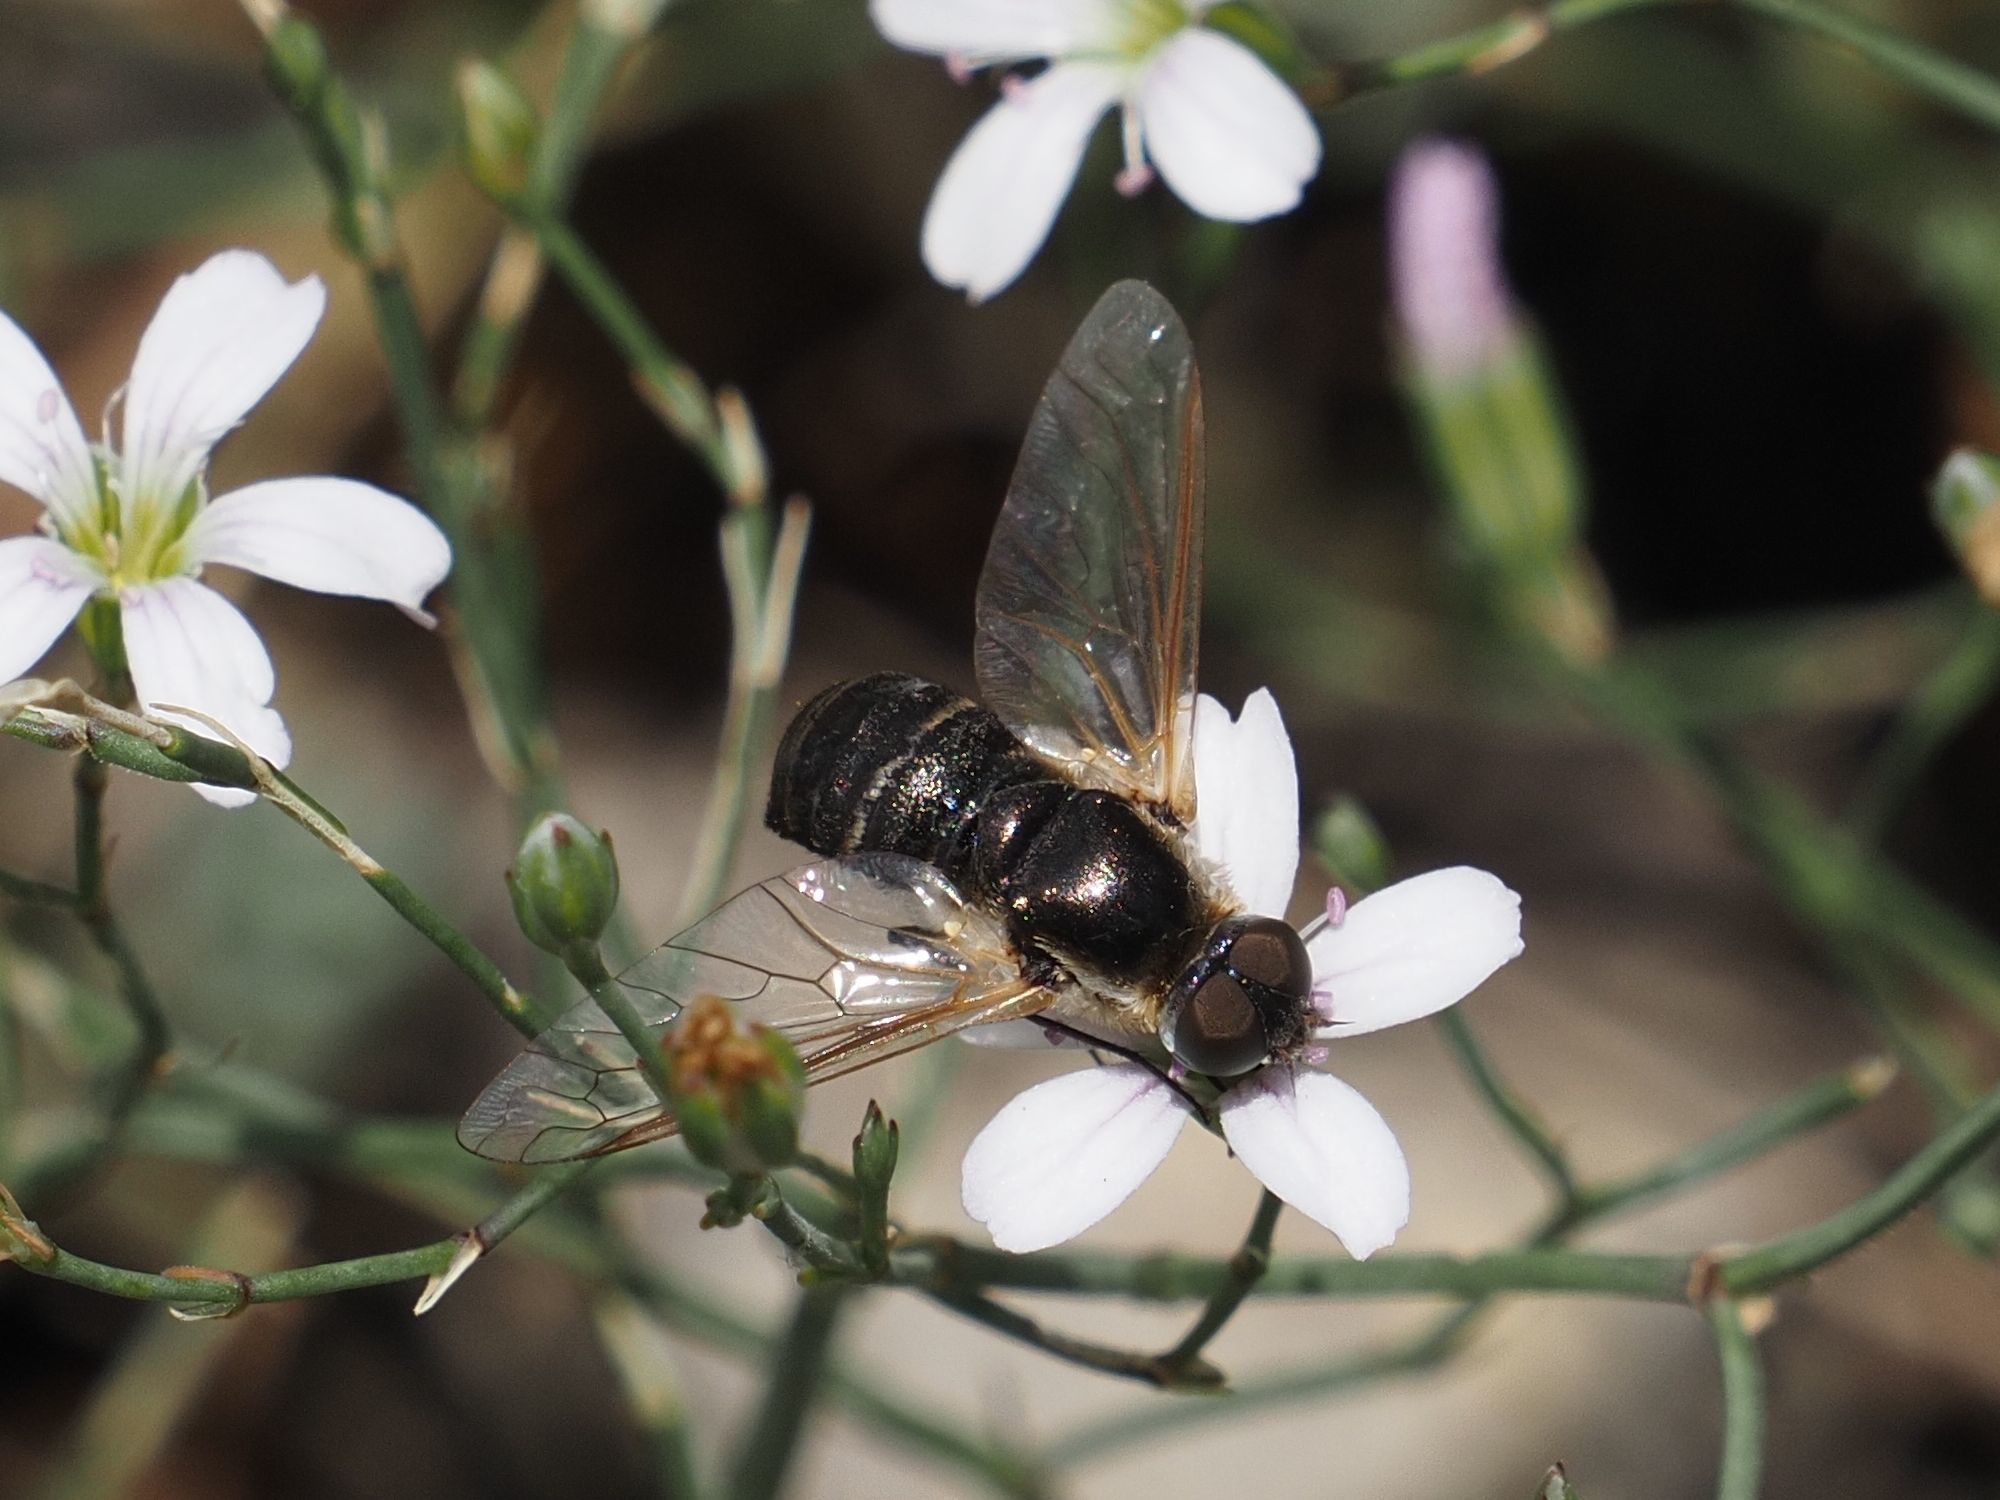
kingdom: Animalia
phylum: Arthropoda
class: Insecta
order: Diptera
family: Bombyliidae
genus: Micomitra
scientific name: Micomitra stupida
